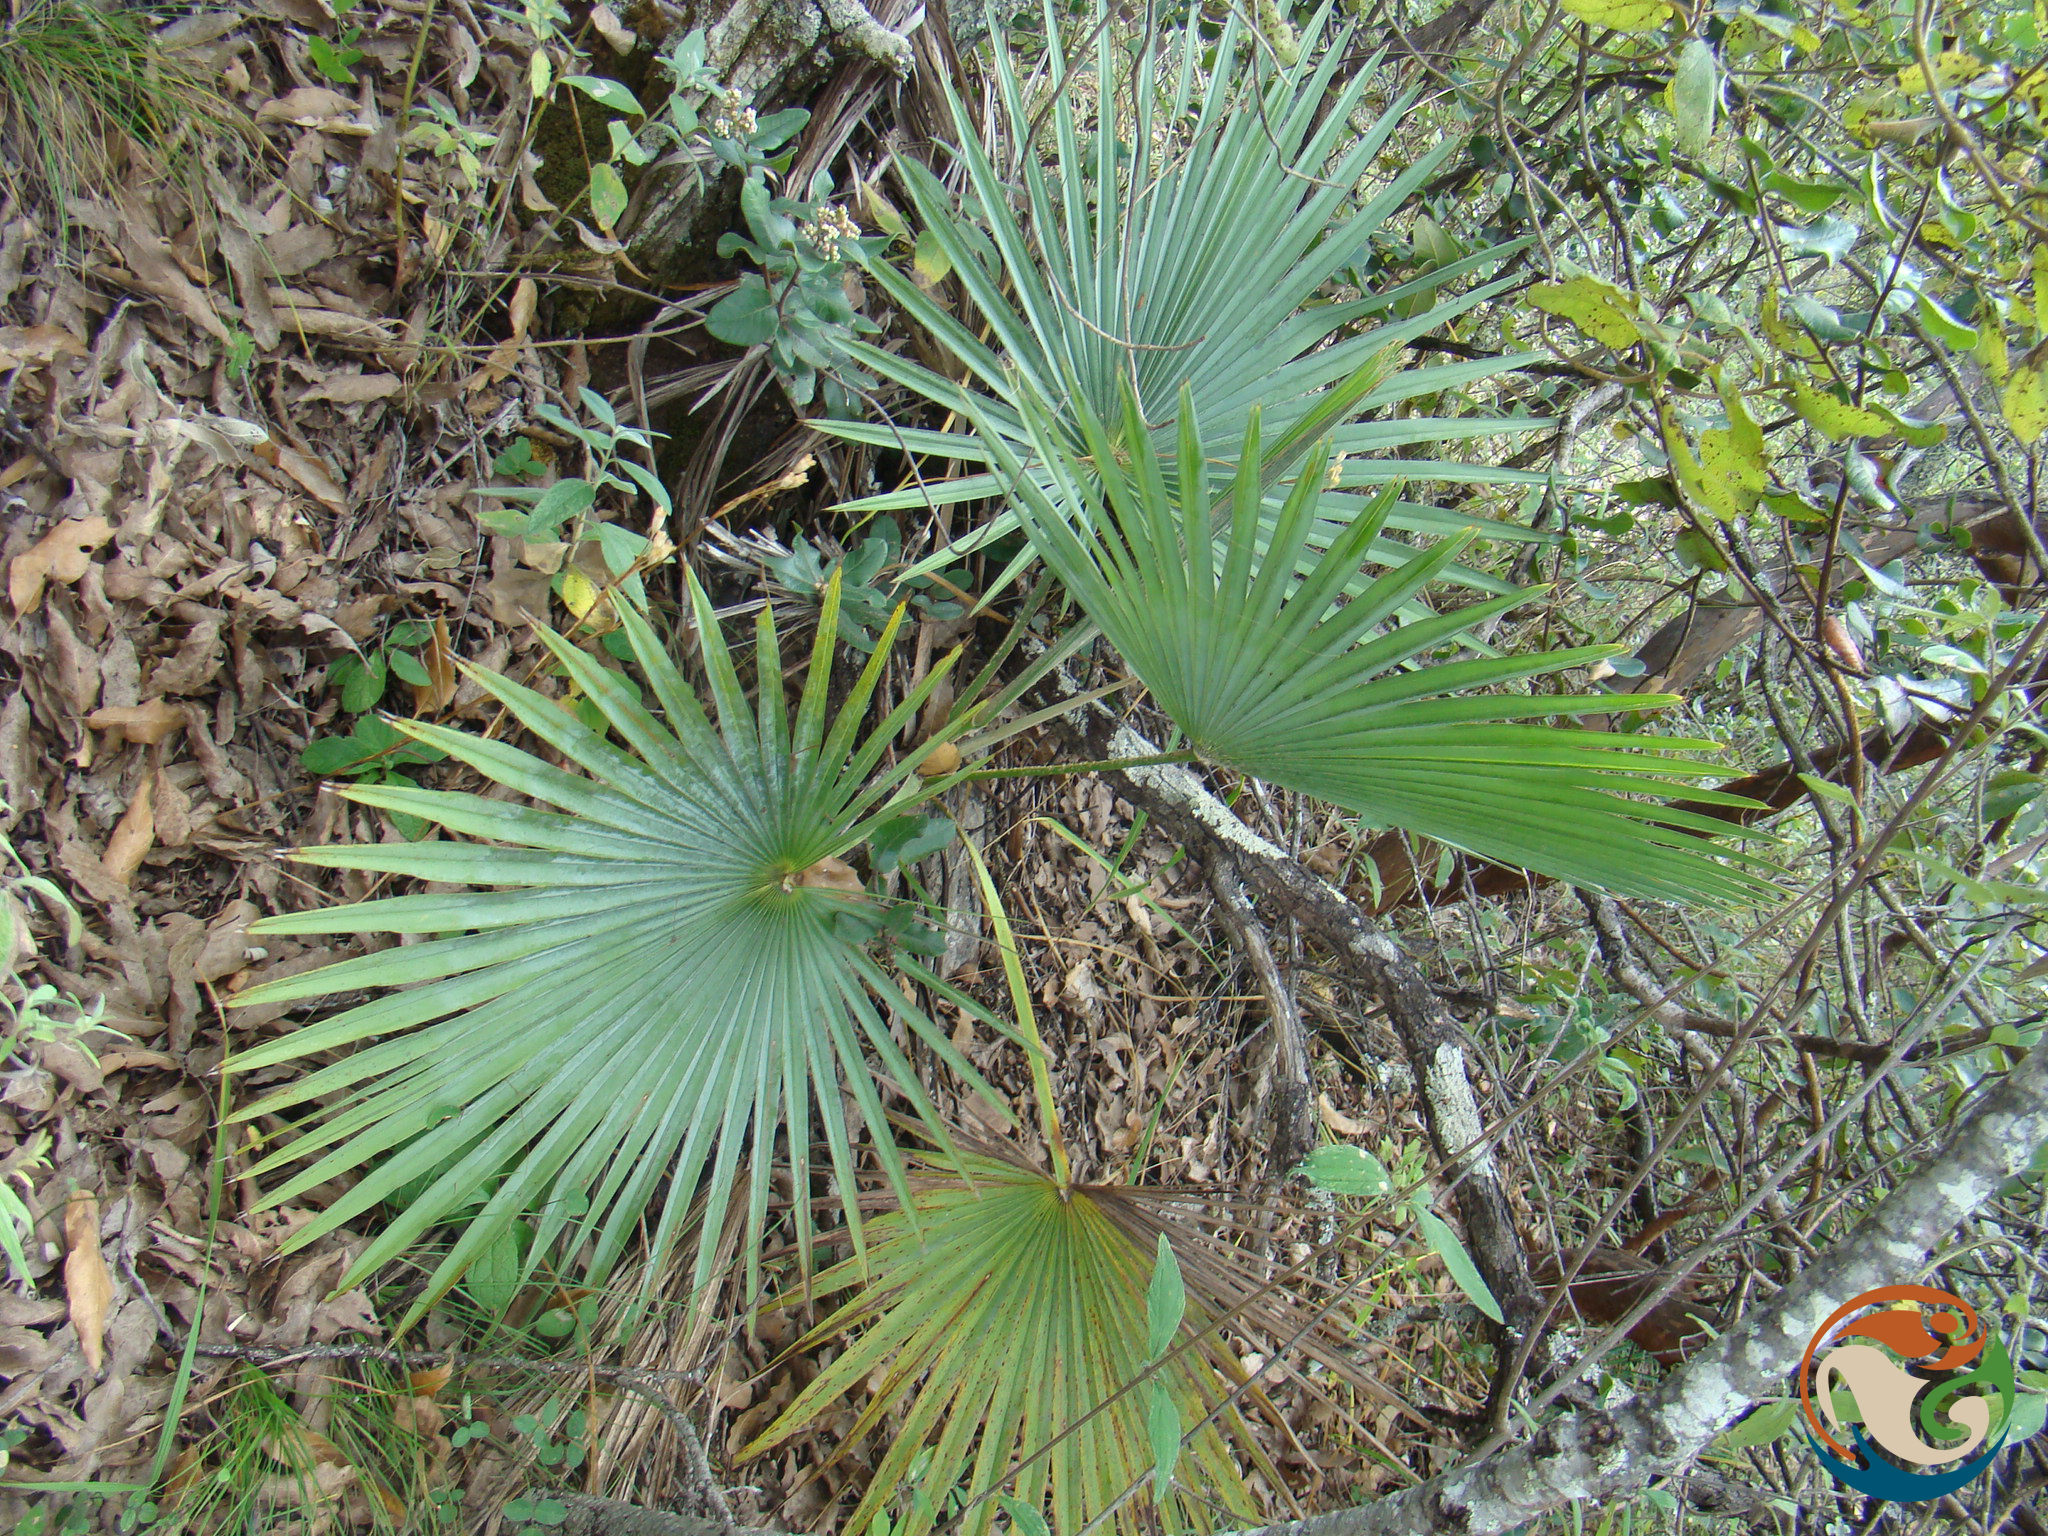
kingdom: Plantae
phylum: Tracheophyta
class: Liliopsida
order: Arecales
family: Arecaceae
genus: Brahea
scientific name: Brahea dulcis
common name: Apak palm
